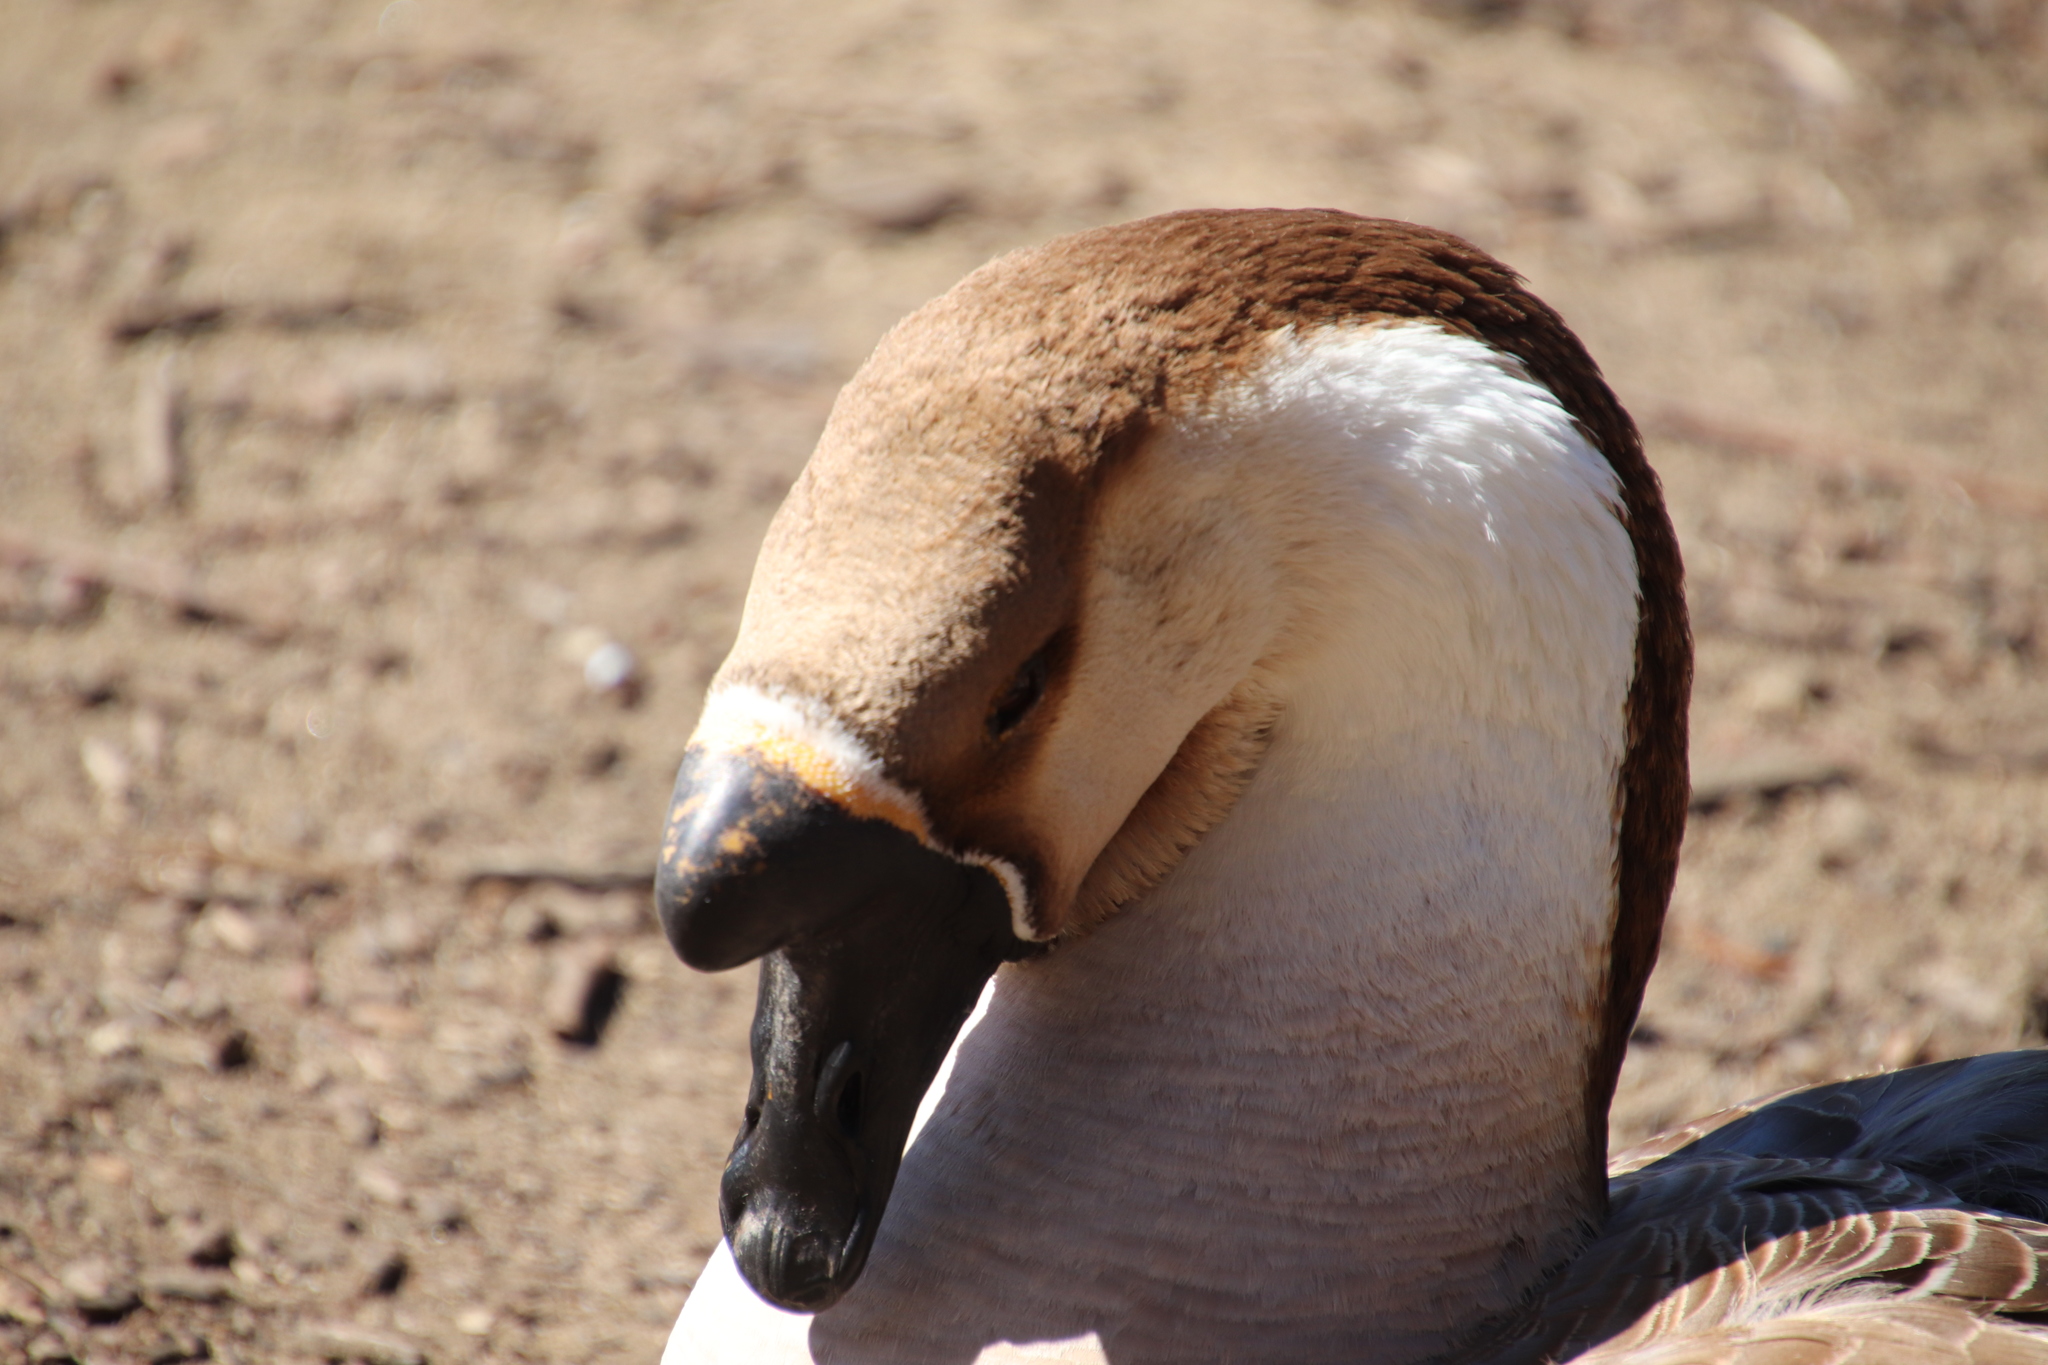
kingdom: Animalia
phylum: Chordata
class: Aves
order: Anseriformes
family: Anatidae
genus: Anser
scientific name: Anser cygnoides
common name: Swan goose
